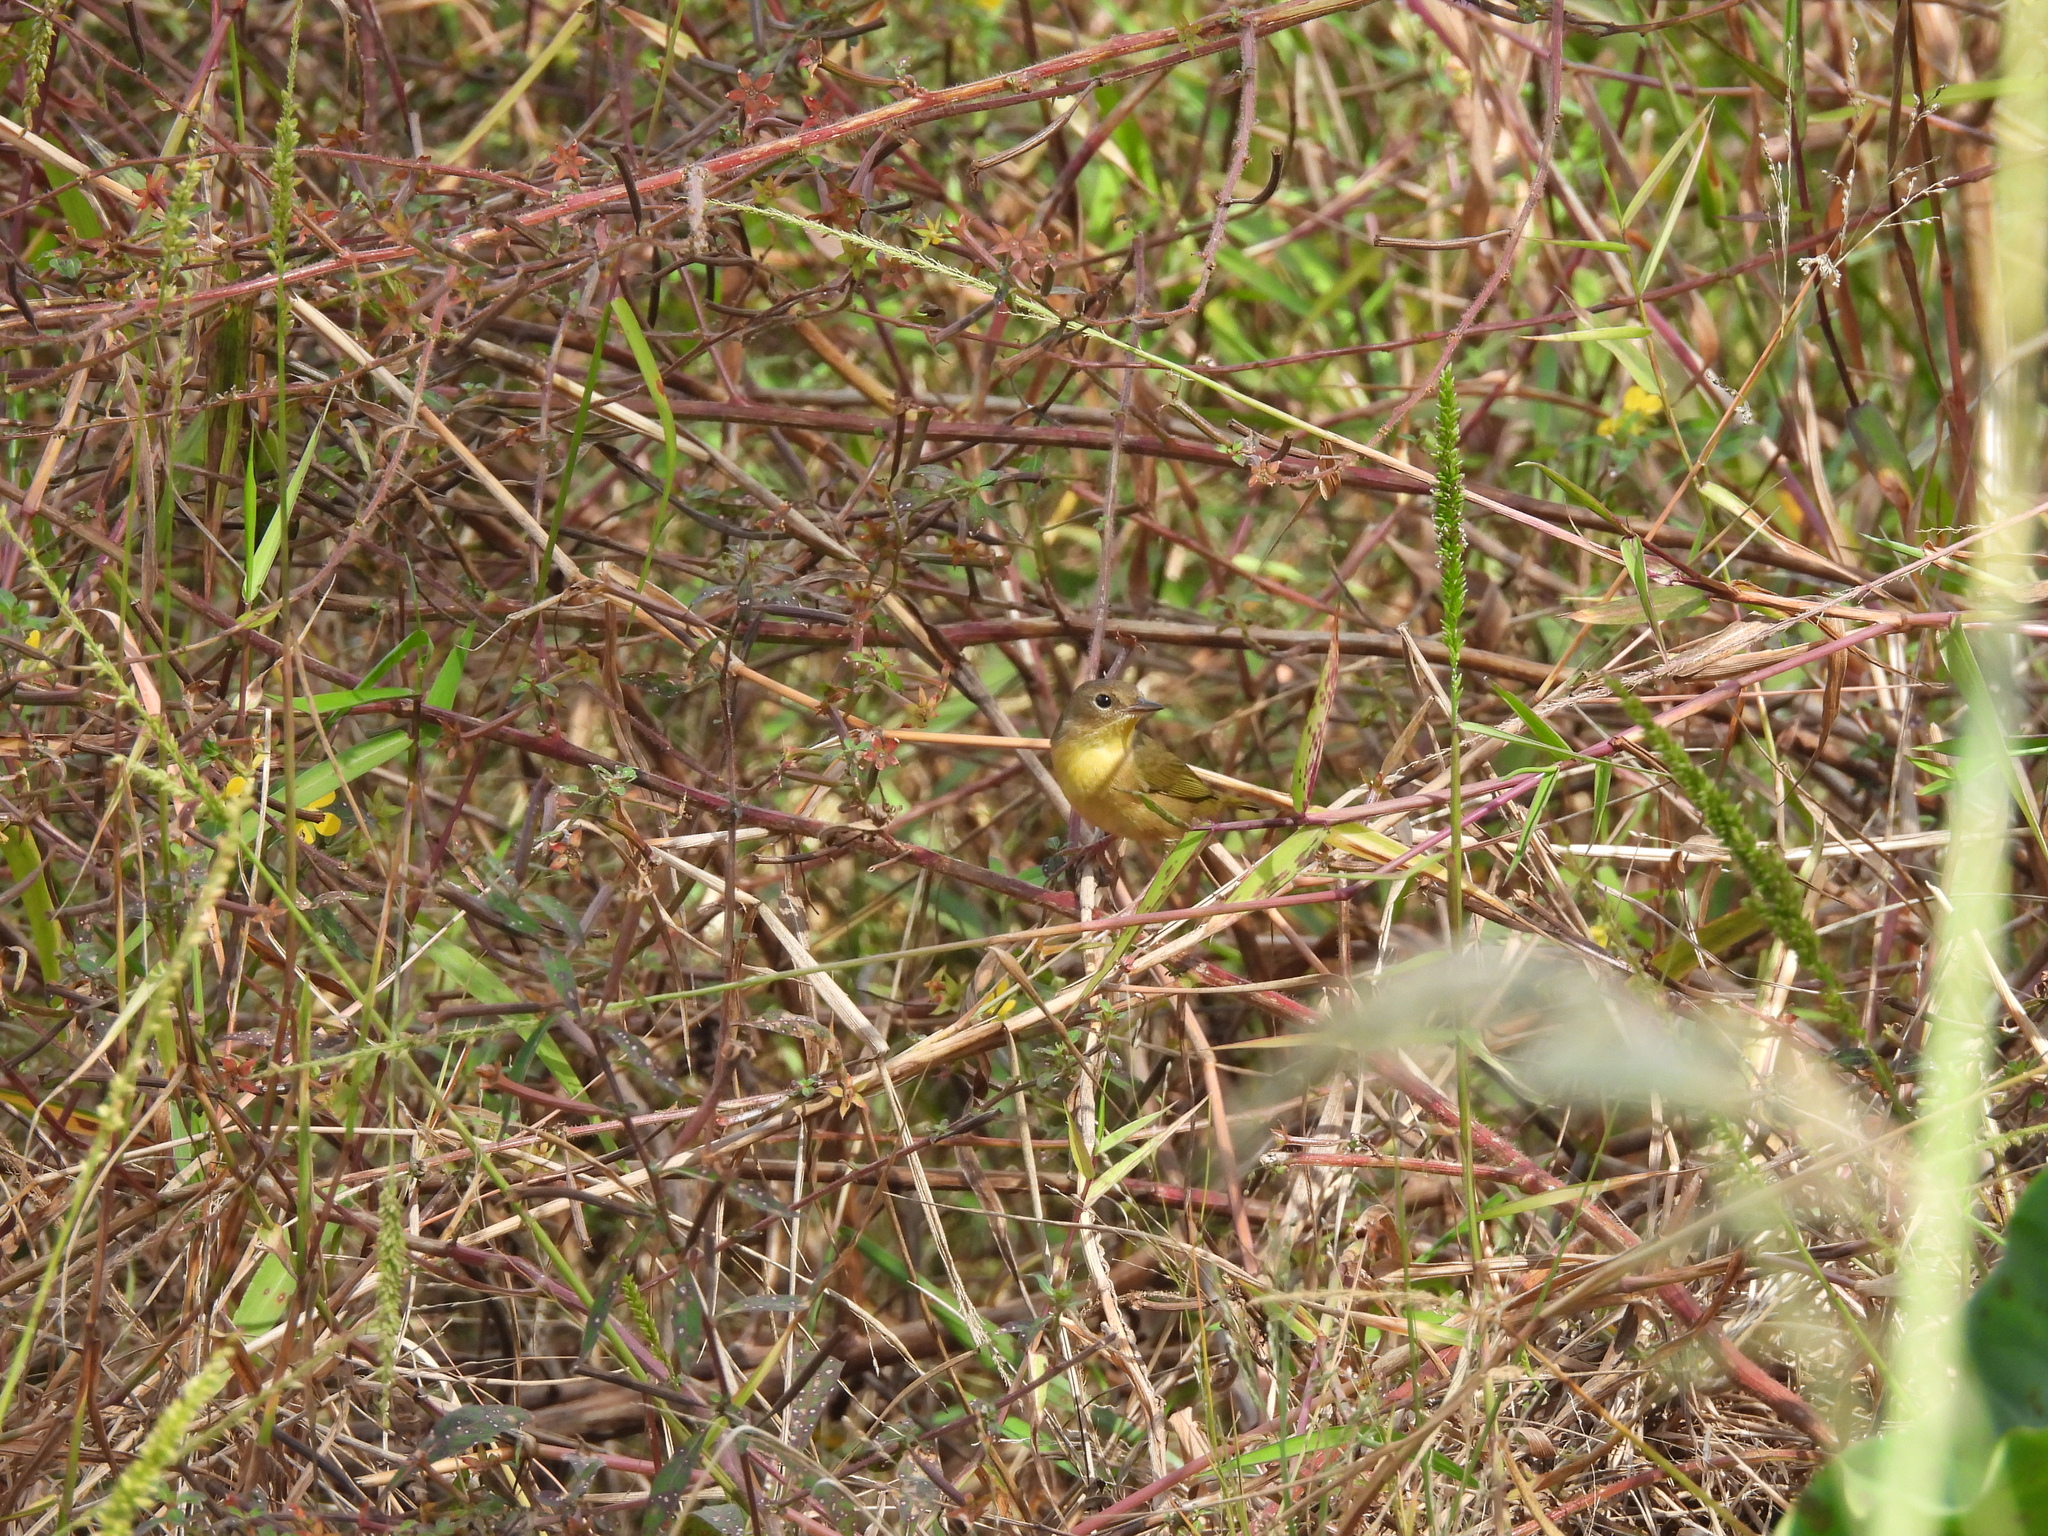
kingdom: Animalia
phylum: Chordata
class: Aves
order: Passeriformes
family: Parulidae
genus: Geothlypis
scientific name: Geothlypis trichas
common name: Common yellowthroat
